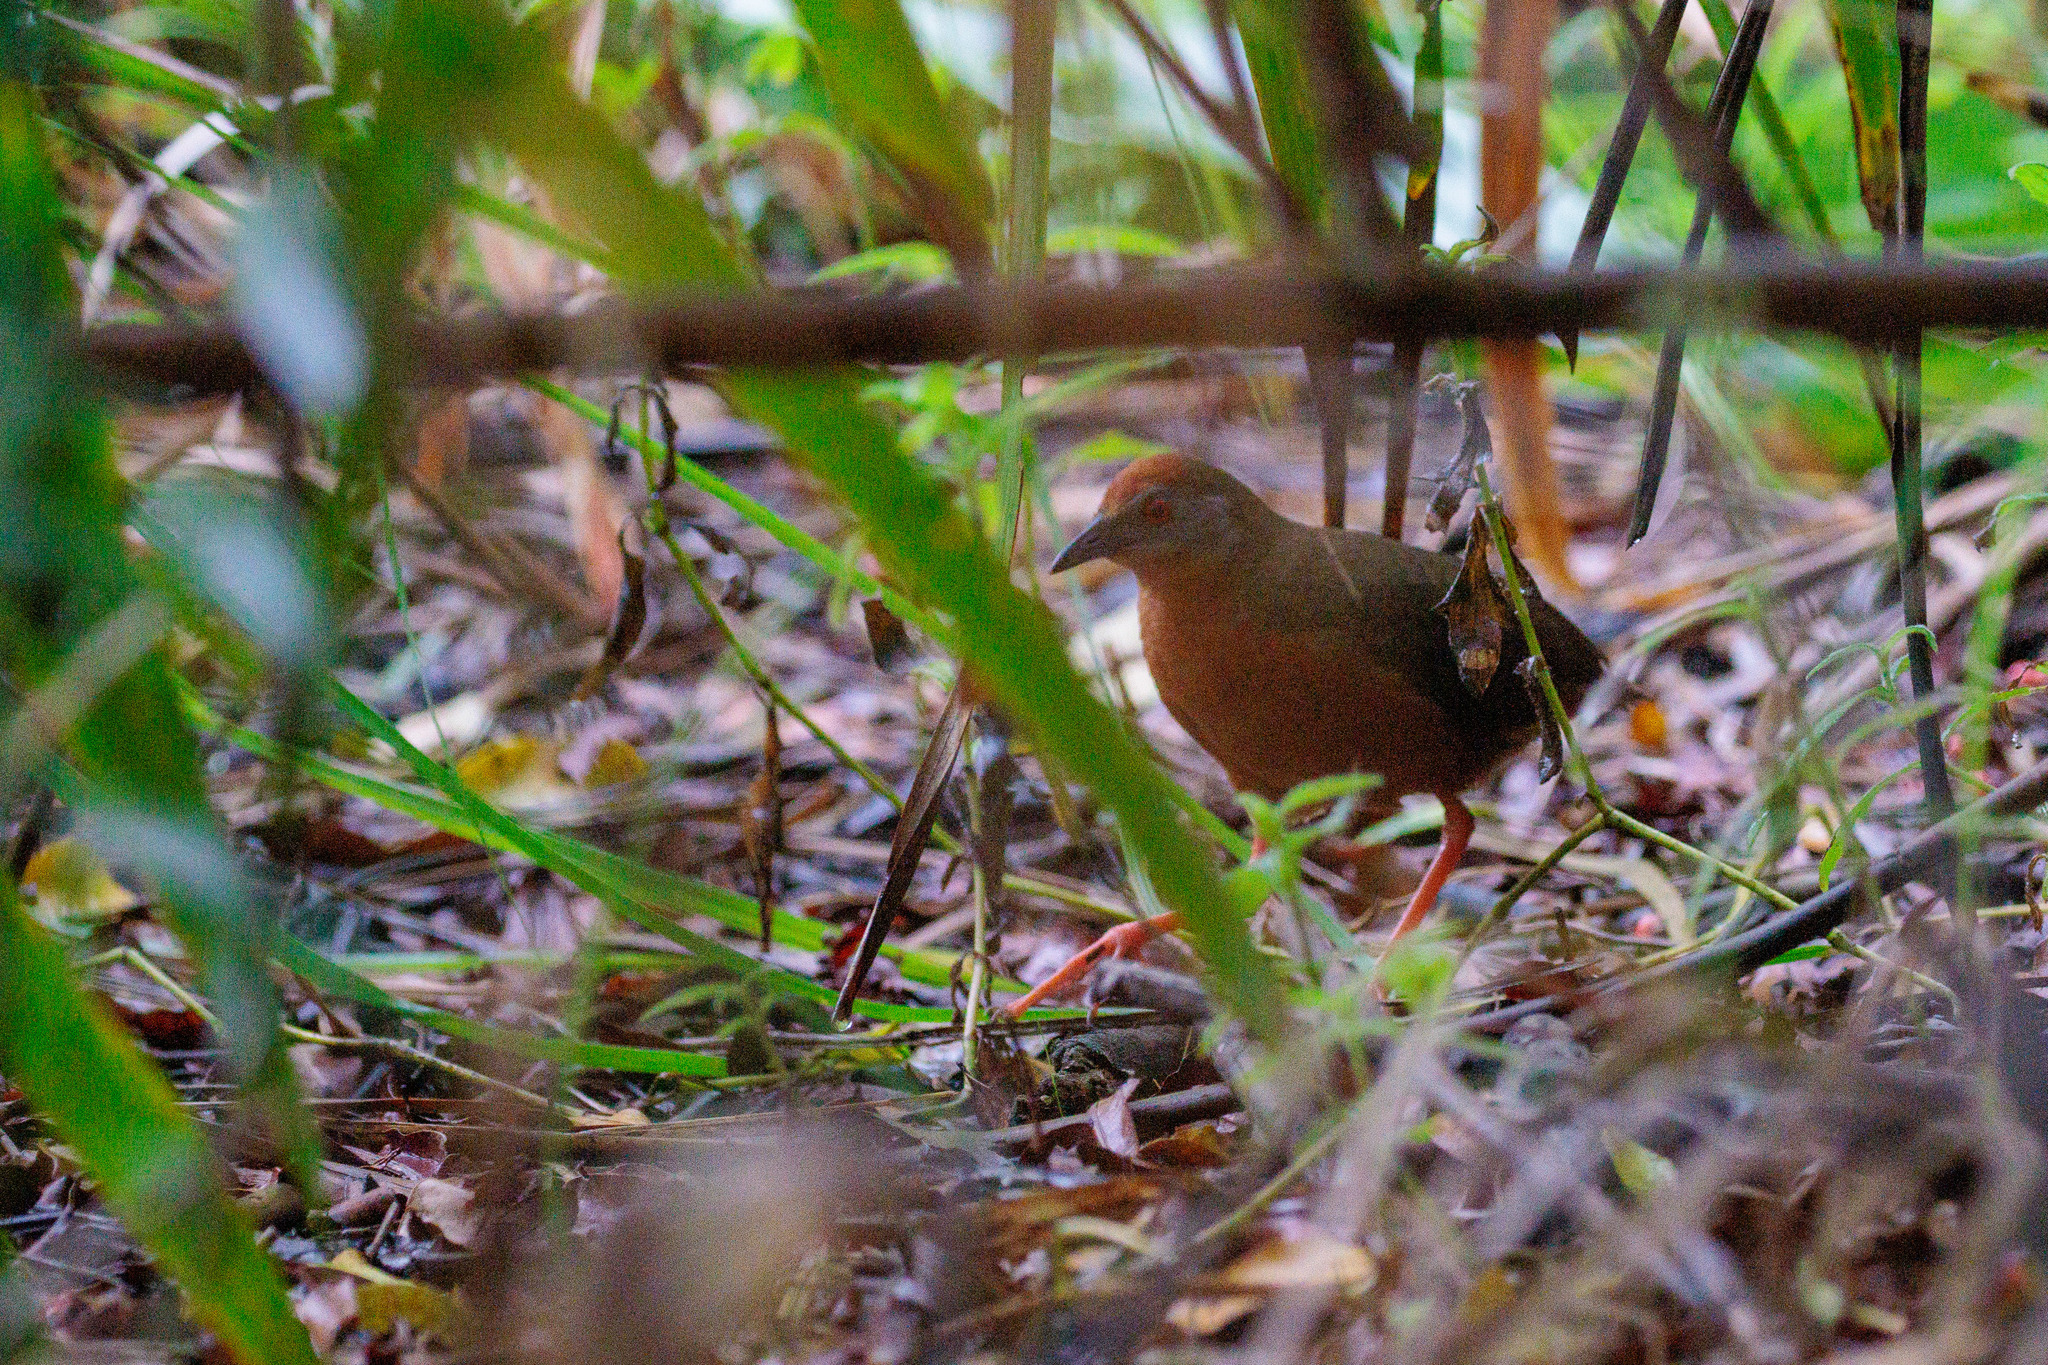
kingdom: Animalia
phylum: Chordata
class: Aves
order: Gruiformes
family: Rallidae
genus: Anurolimnas
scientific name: Anurolimnas viridis
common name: Russet-crowned crake
